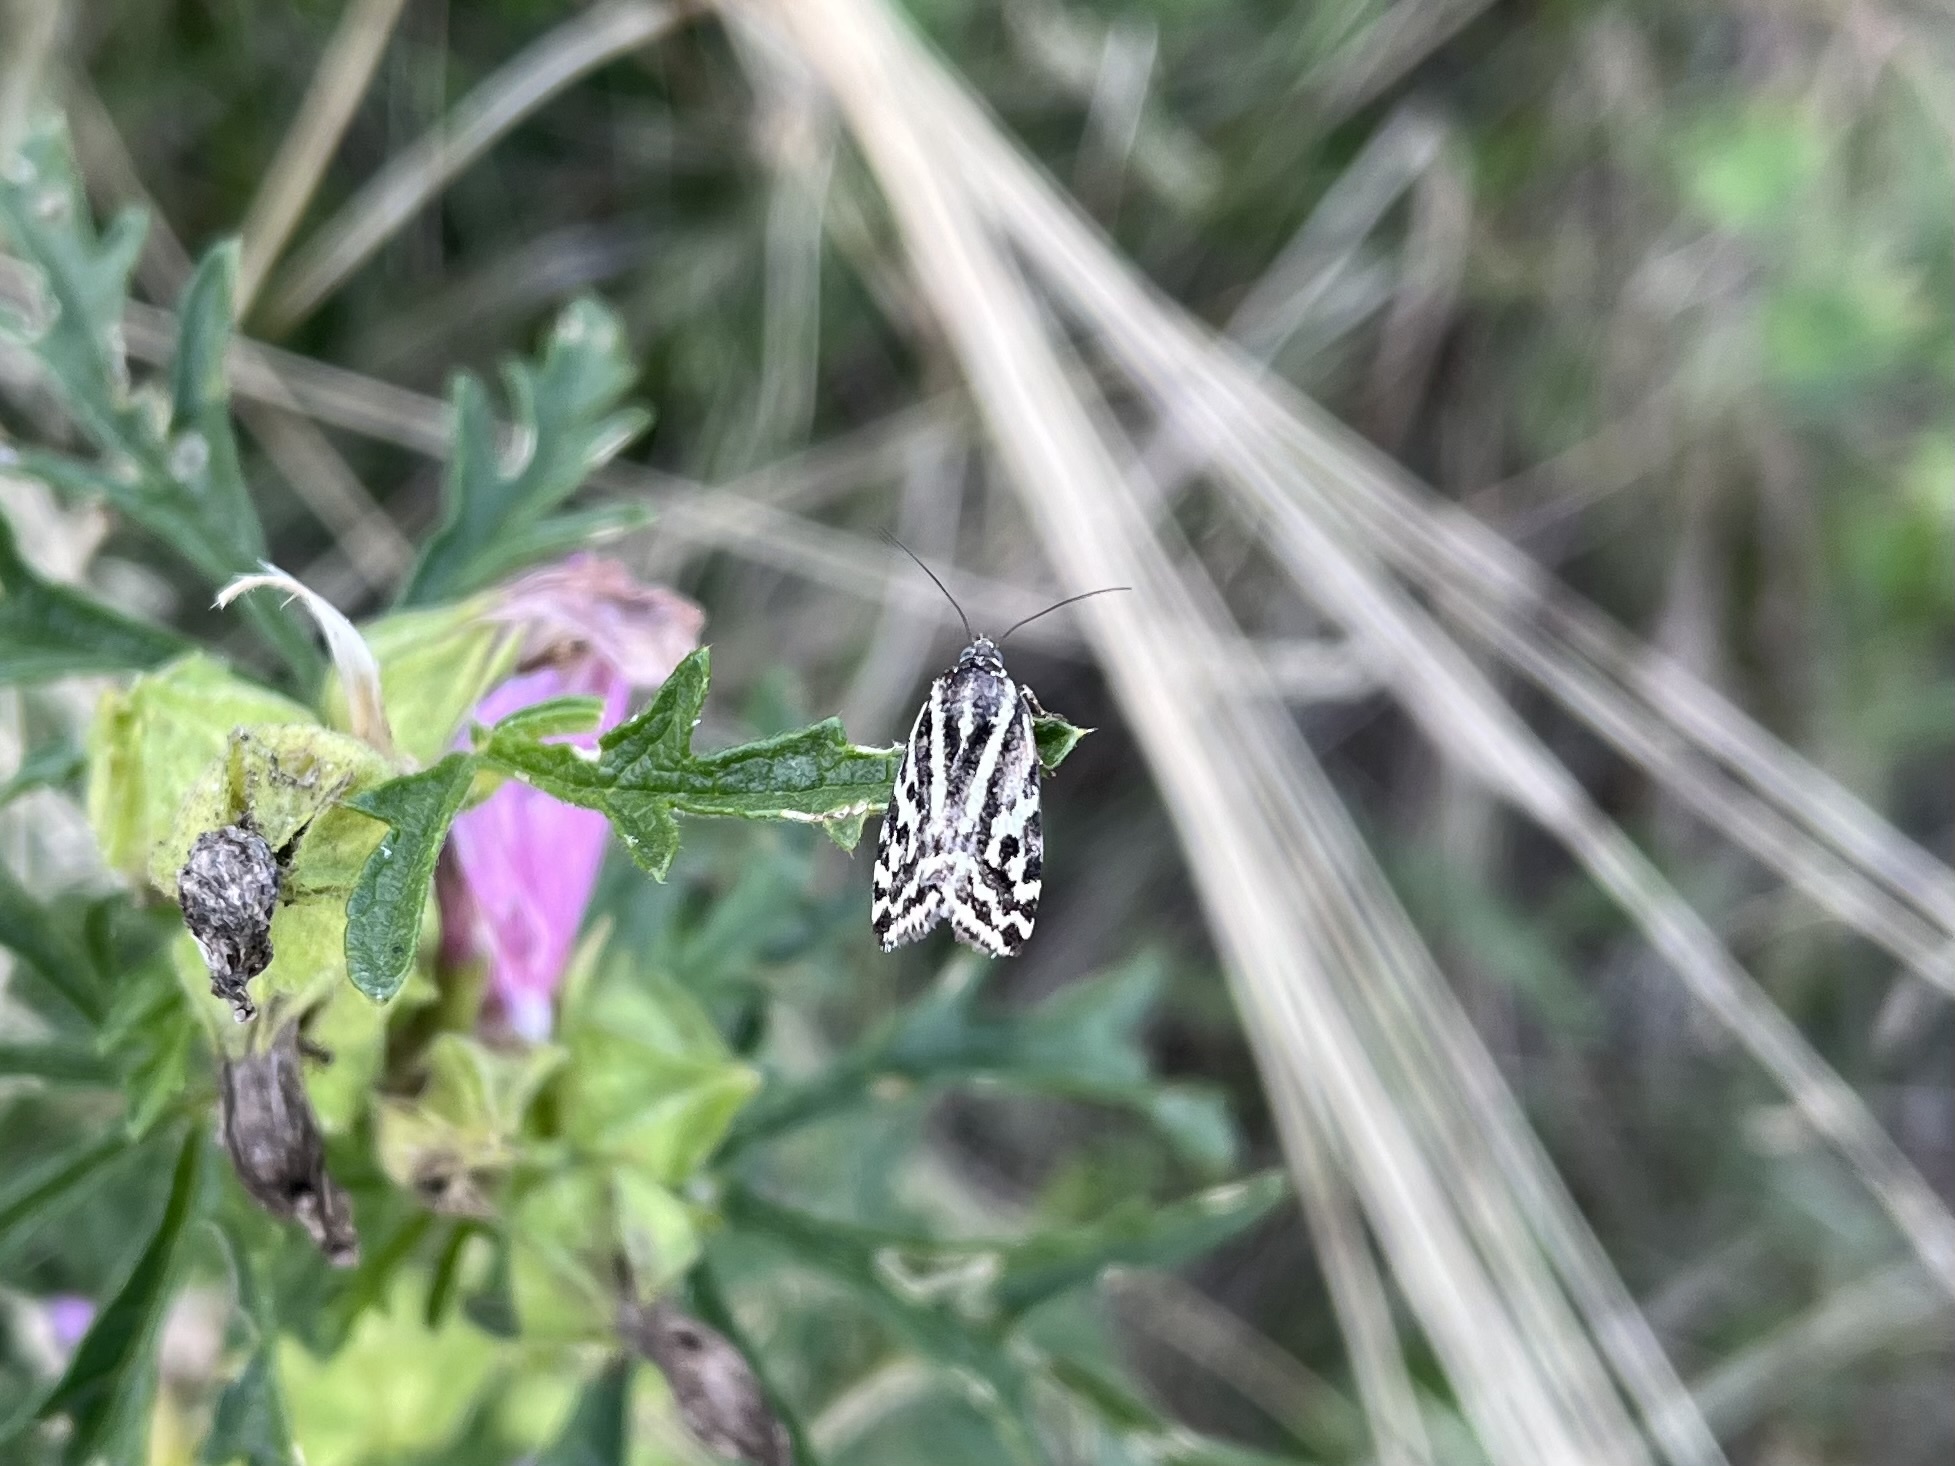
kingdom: Animalia
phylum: Arthropoda
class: Insecta
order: Lepidoptera
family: Noctuidae
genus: Acontia
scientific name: Acontia trabealis
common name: Spotted sulphur
